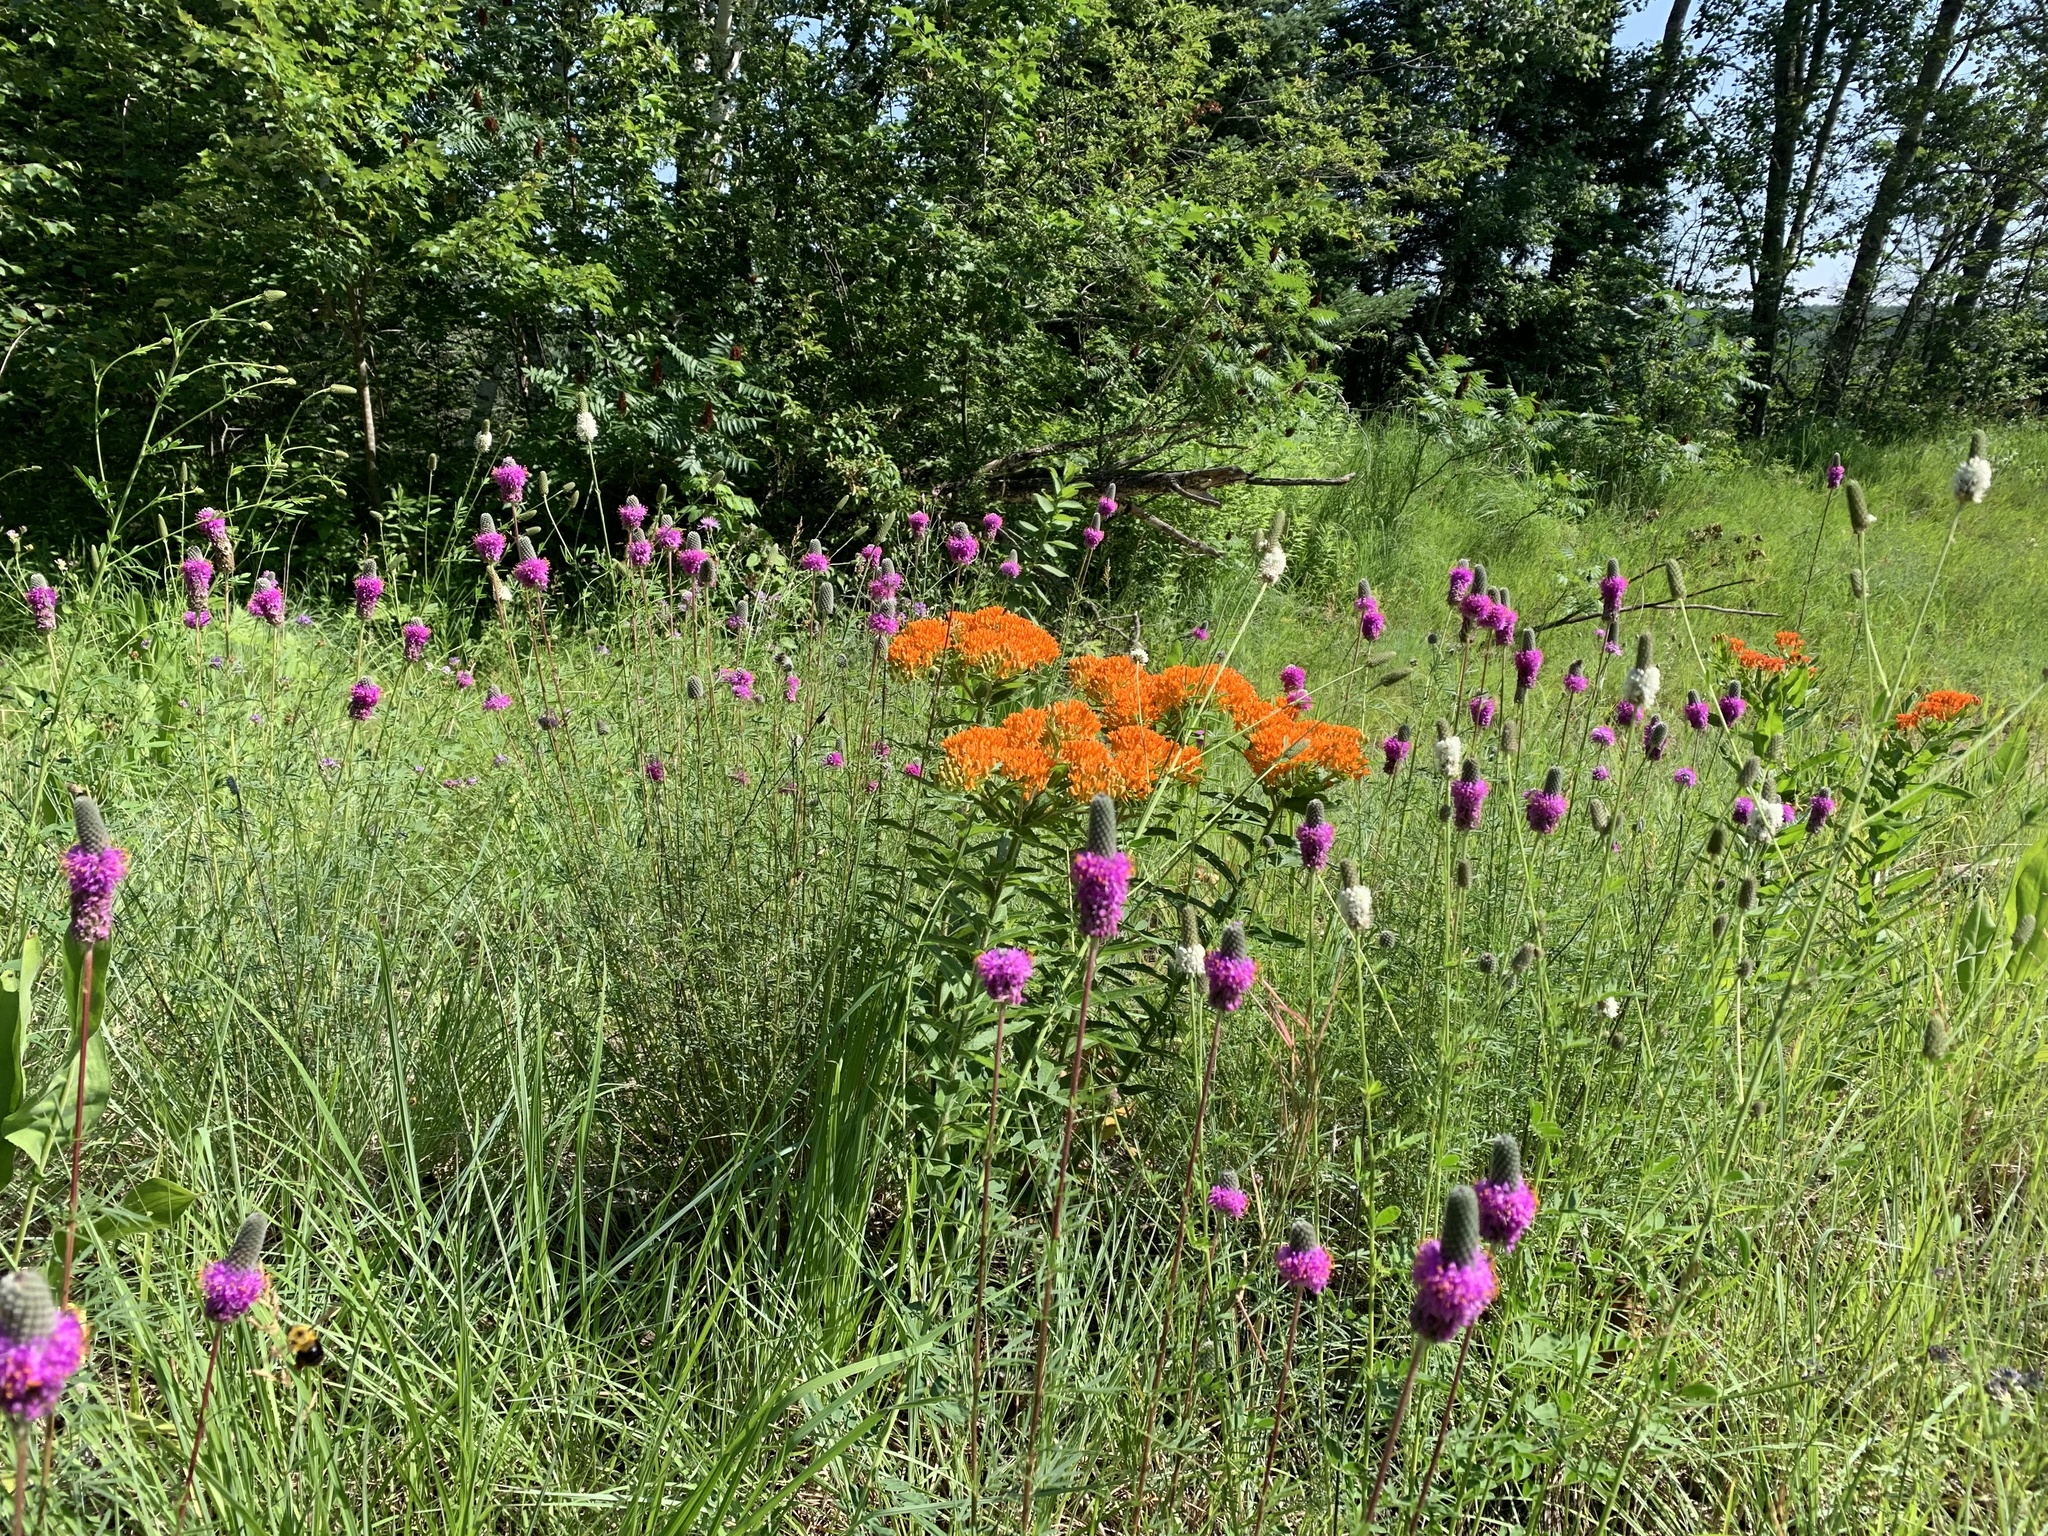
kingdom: Plantae
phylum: Tracheophyta
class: Magnoliopsida
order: Gentianales
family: Apocynaceae
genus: Asclepias
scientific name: Asclepias tuberosa
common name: Butterfly milkweed
